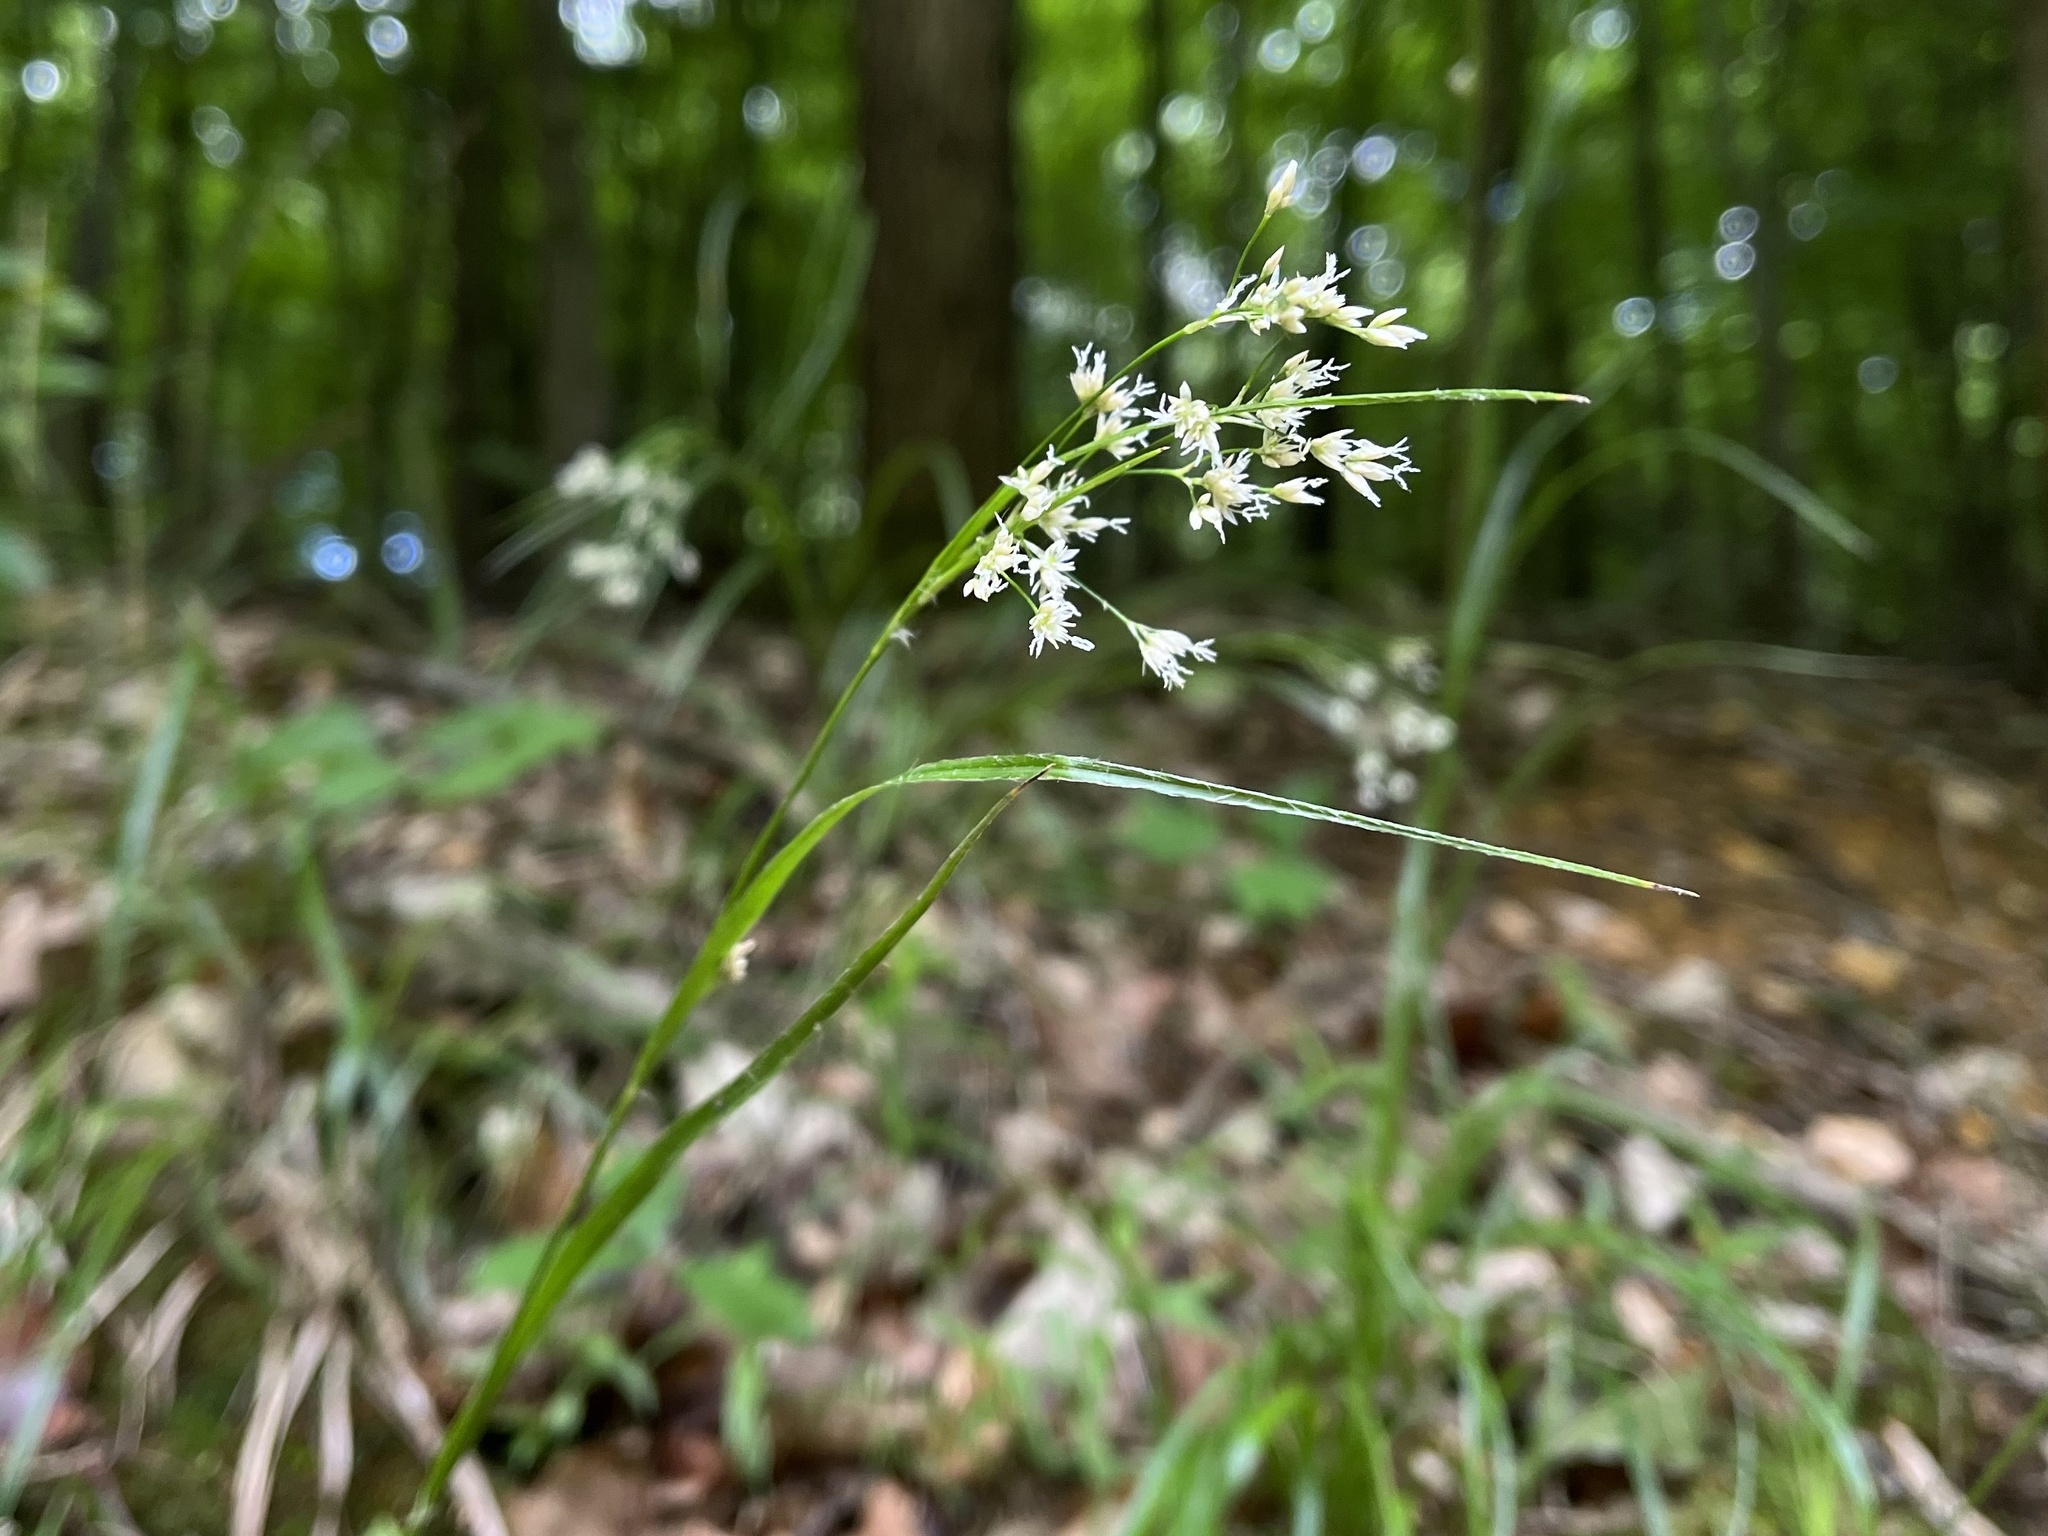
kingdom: Plantae
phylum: Tracheophyta
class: Liliopsida
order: Poales
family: Juncaceae
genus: Luzula
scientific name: Luzula luzuloides
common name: White wood-rush
